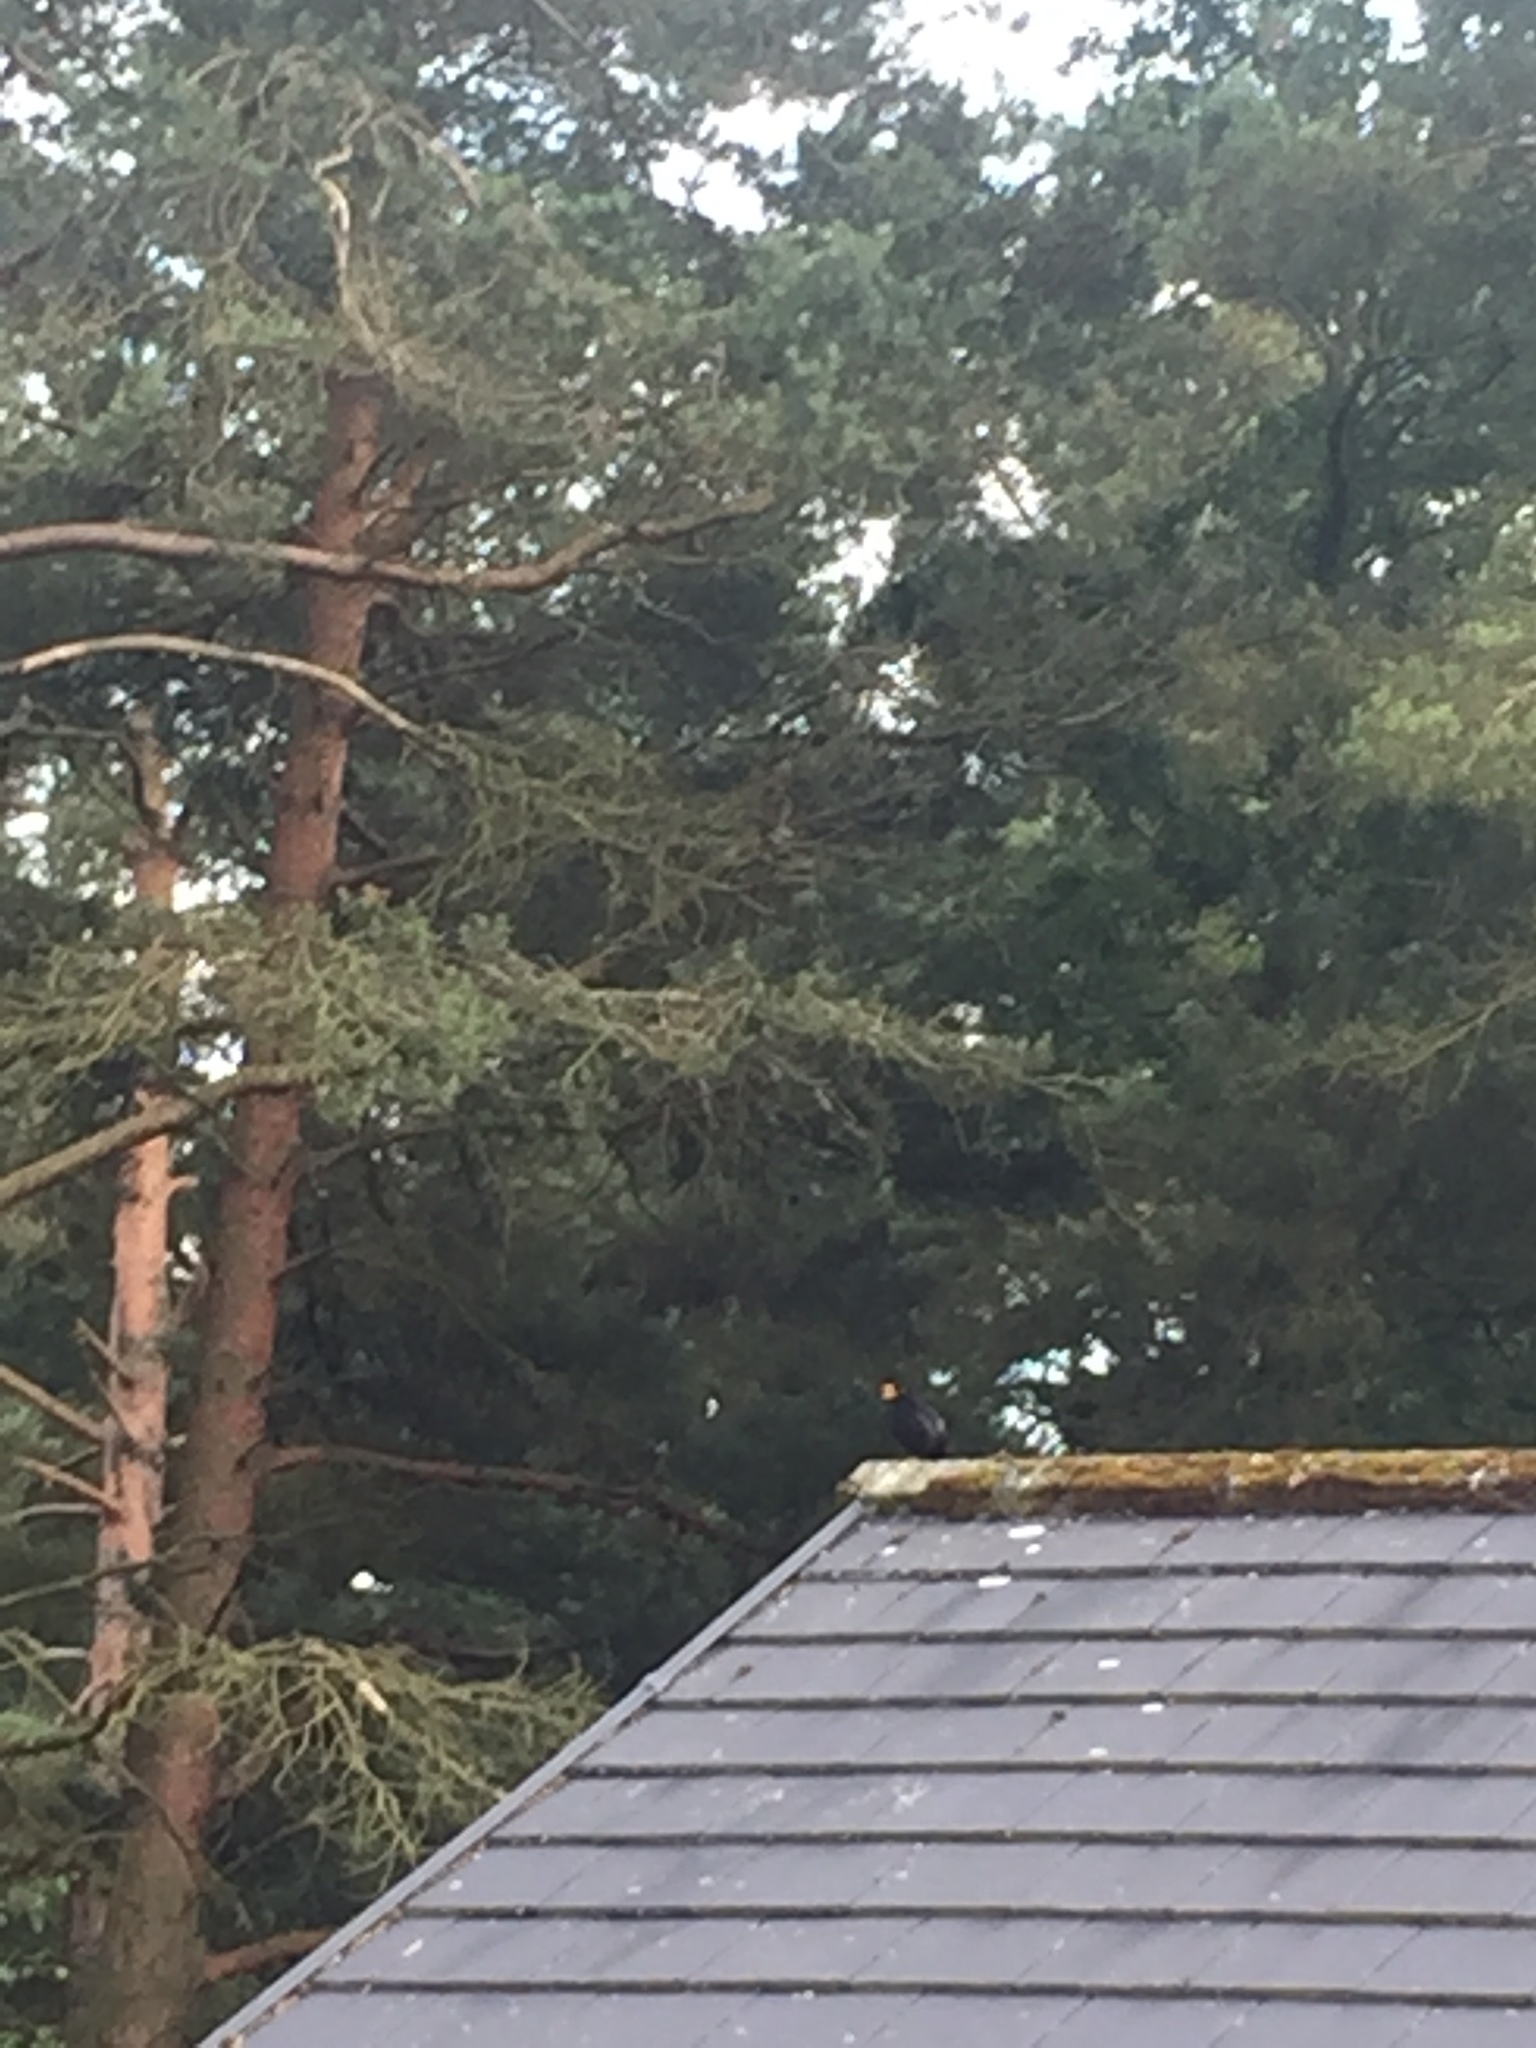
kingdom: Animalia
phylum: Chordata
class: Aves
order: Passeriformes
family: Turdidae
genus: Turdus
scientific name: Turdus merula
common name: Common blackbird
